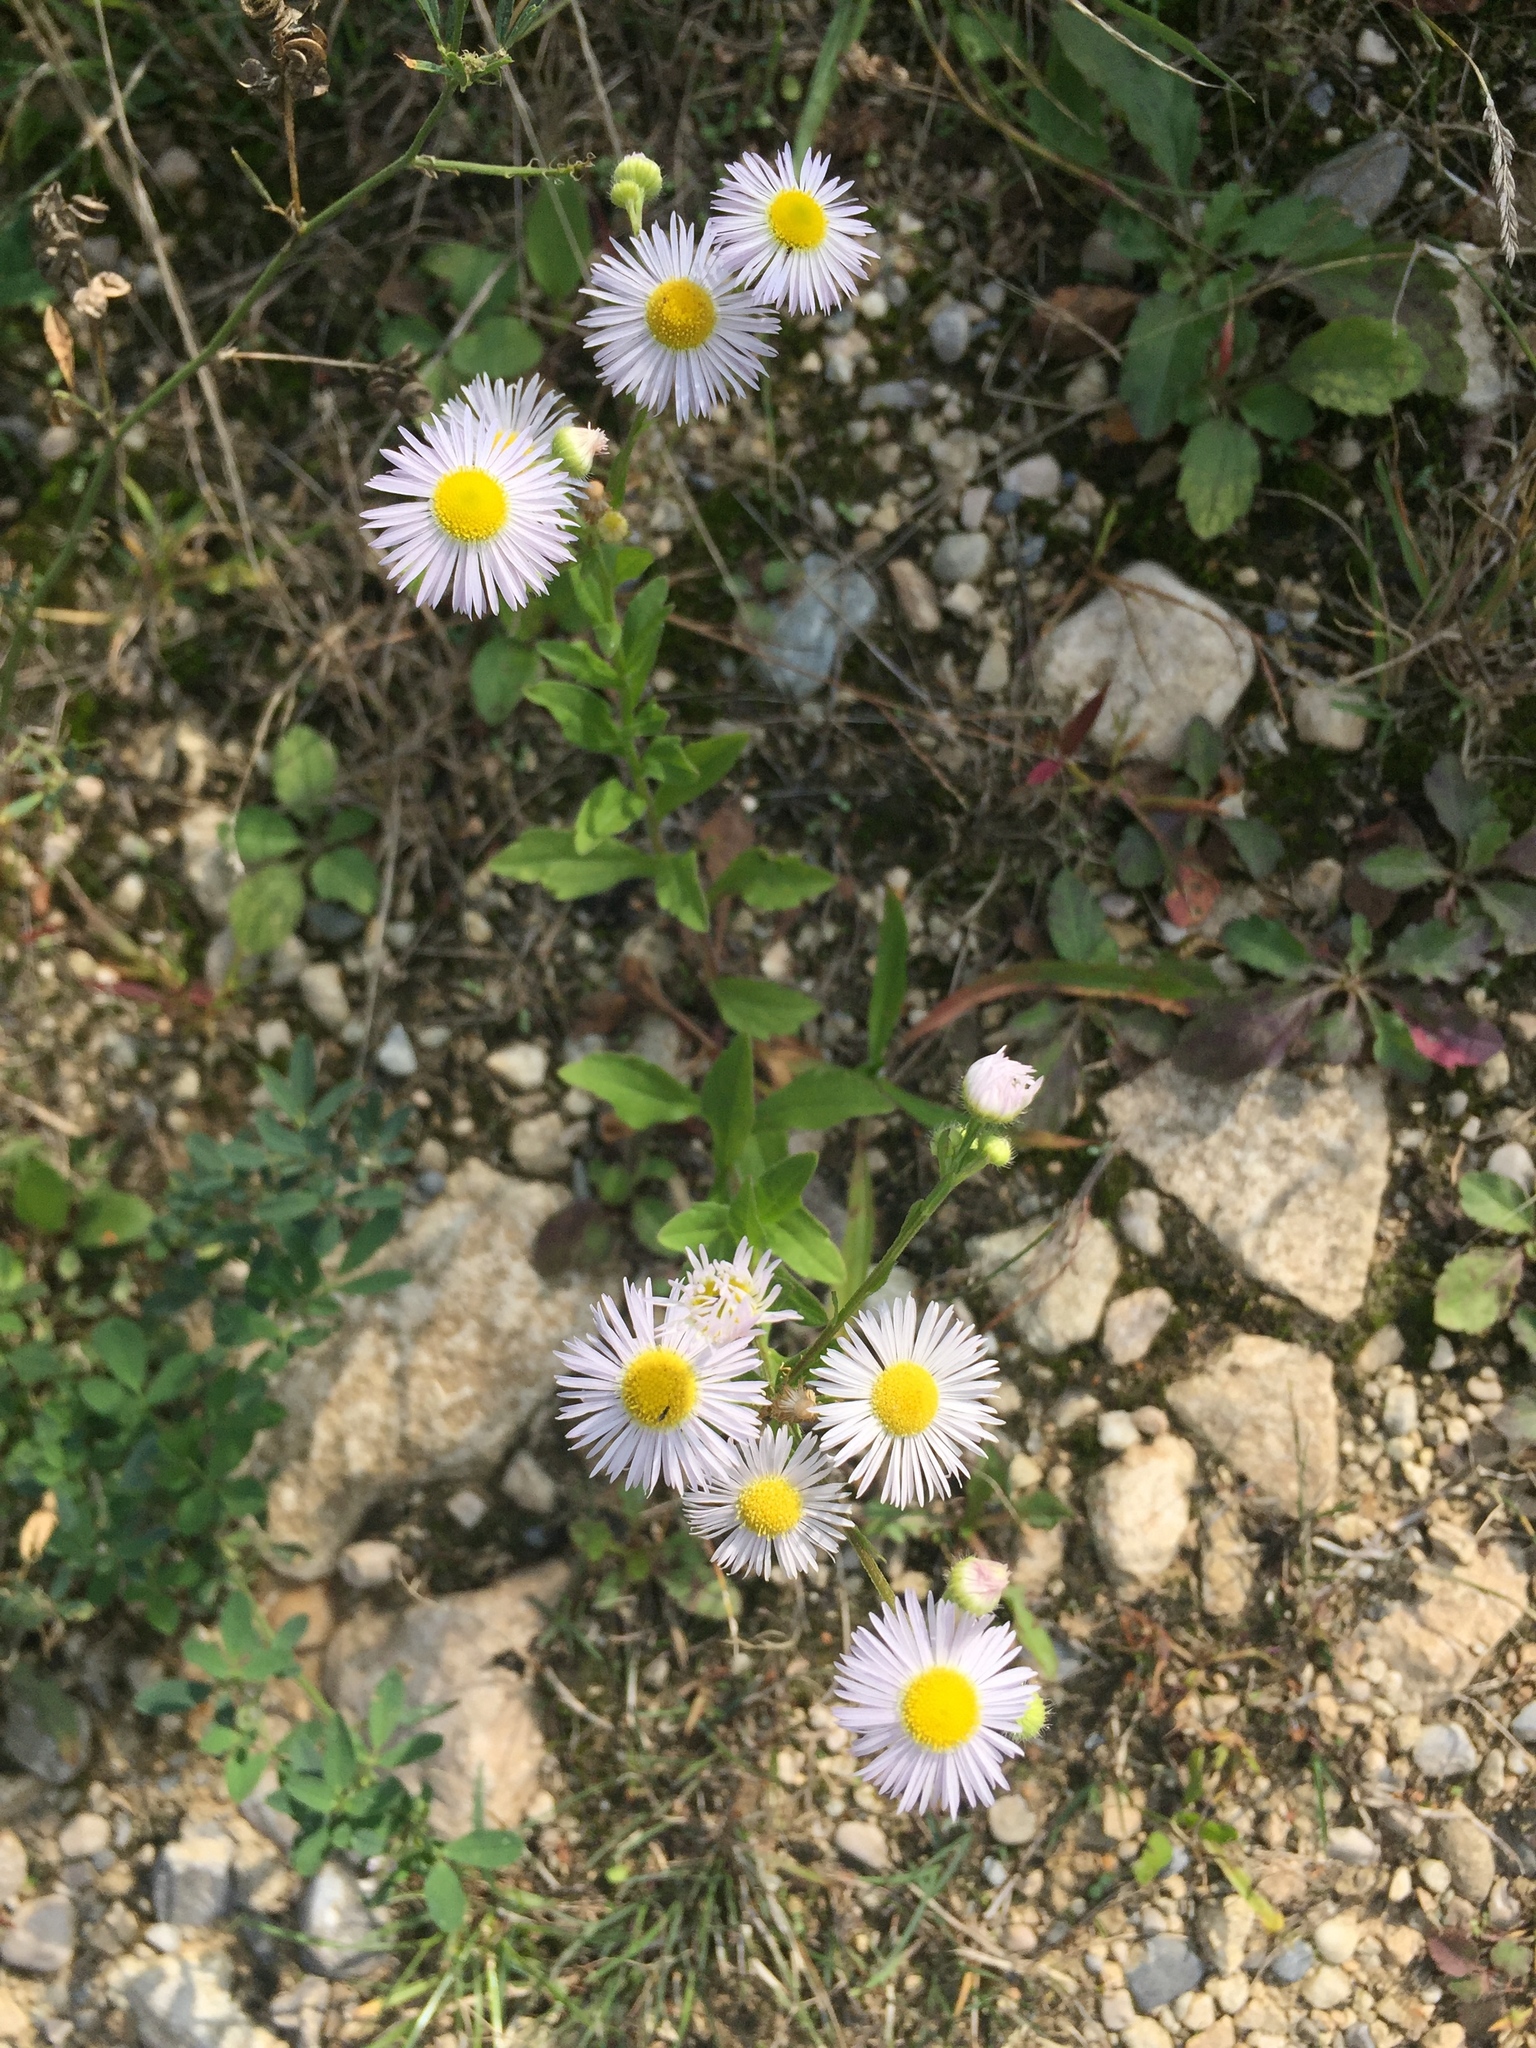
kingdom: Plantae
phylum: Tracheophyta
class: Magnoliopsida
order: Asterales
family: Asteraceae
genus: Erigeron
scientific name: Erigeron annuus
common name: Tall fleabane
